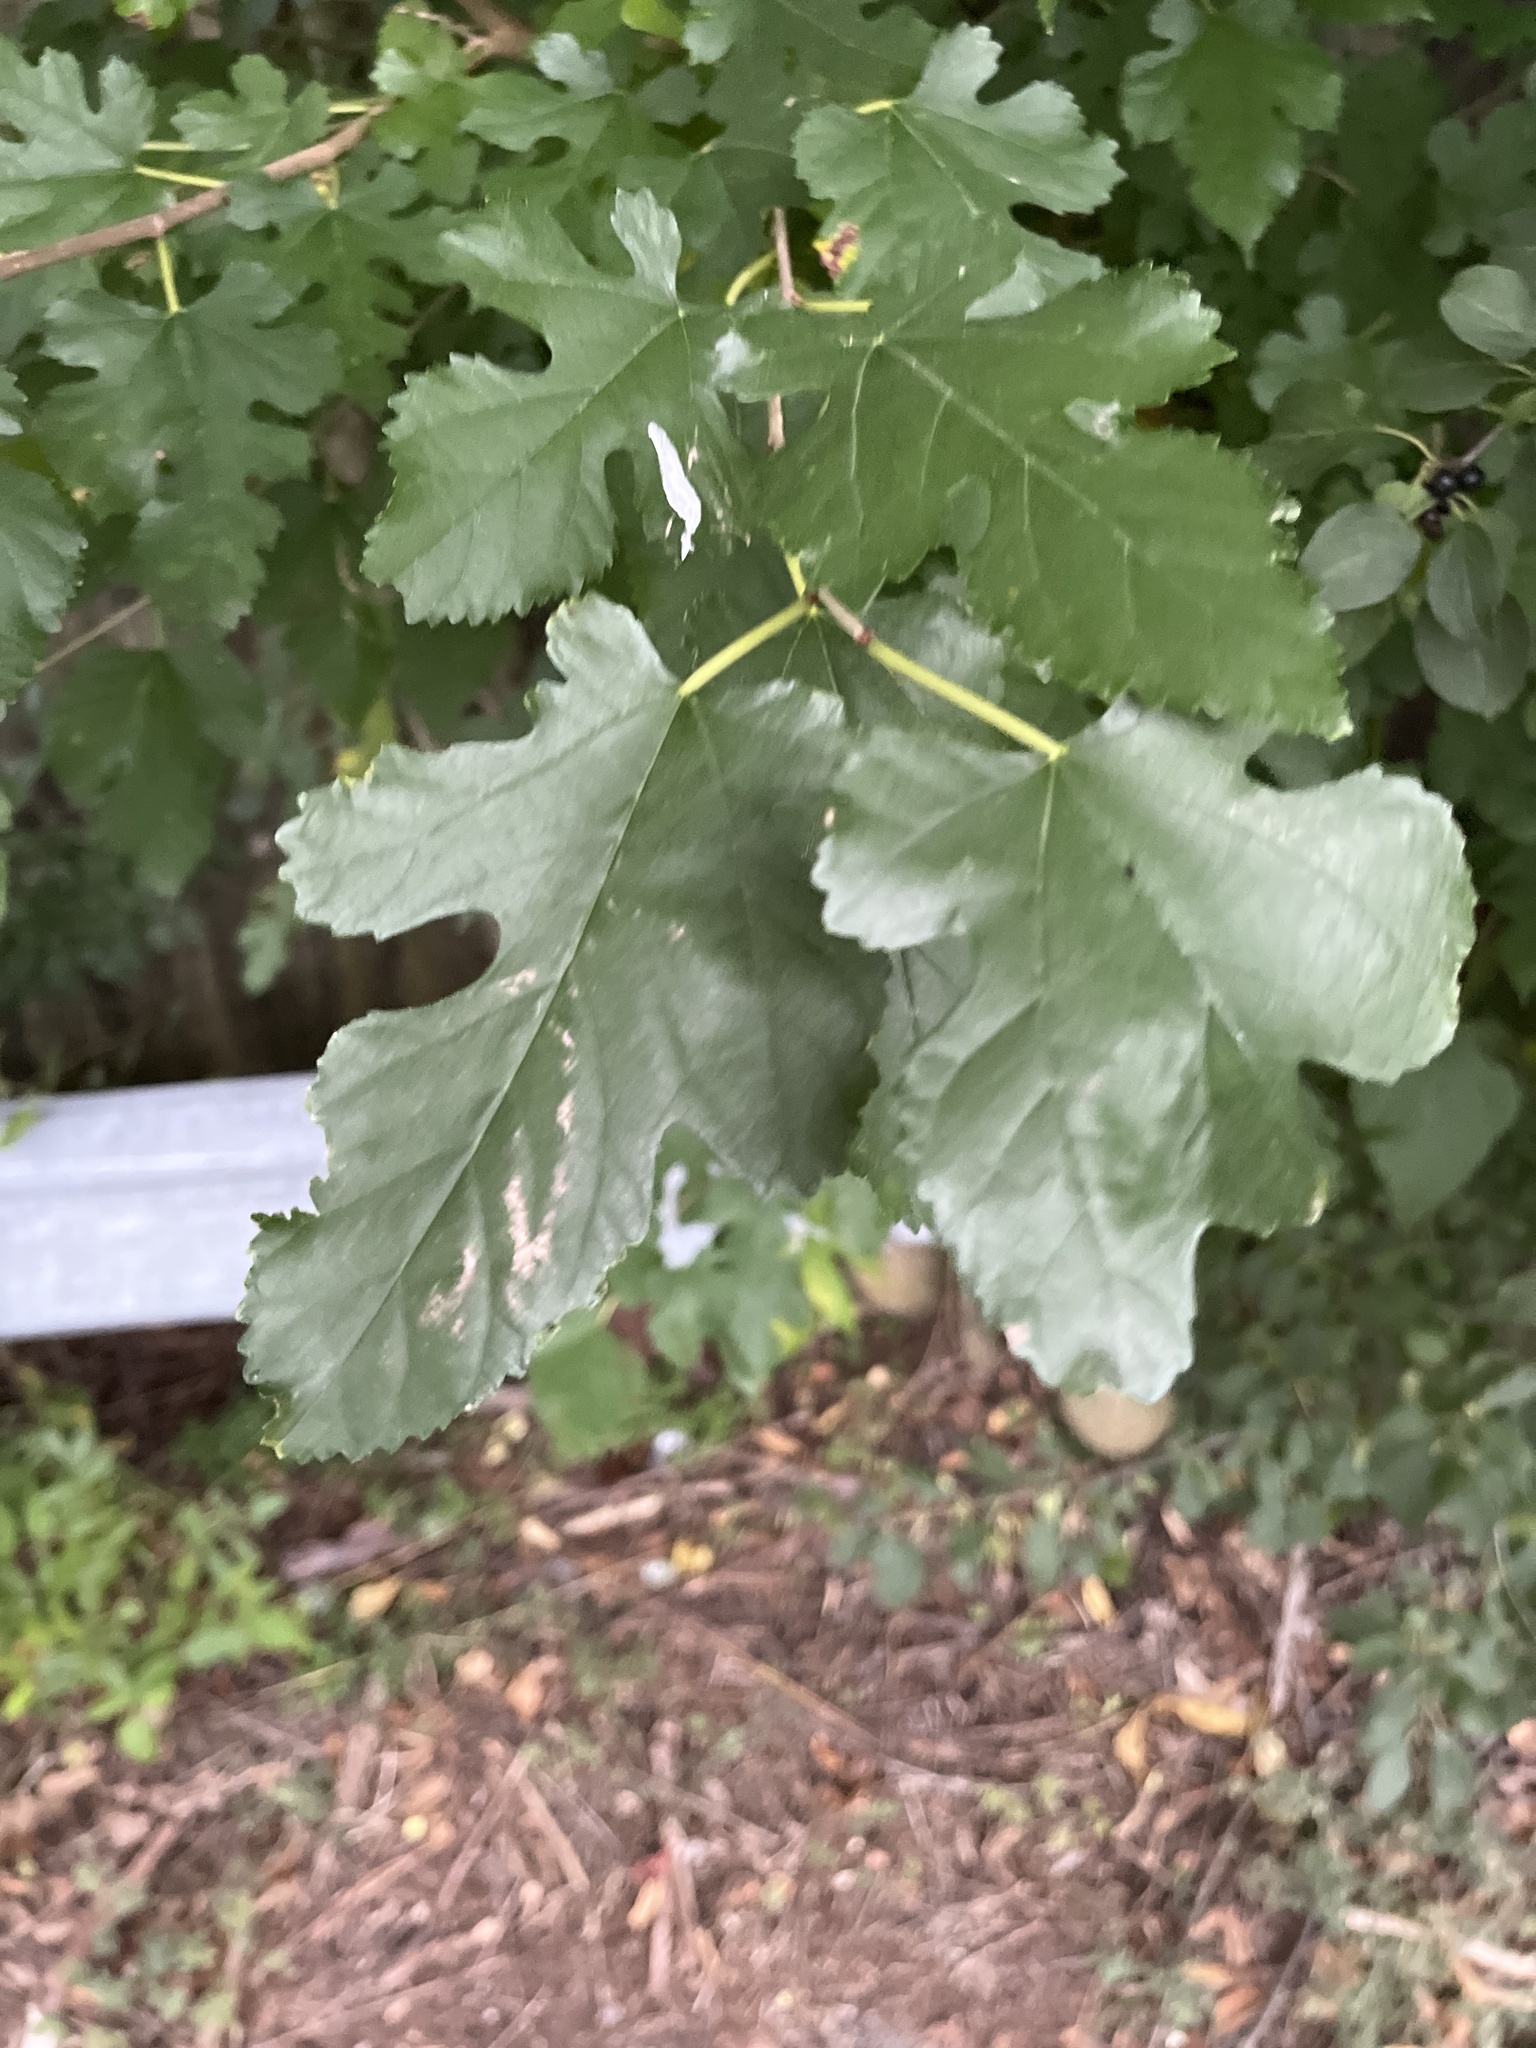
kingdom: Plantae
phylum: Tracheophyta
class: Magnoliopsida
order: Rosales
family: Moraceae
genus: Morus
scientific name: Morus alba
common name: White mulberry
